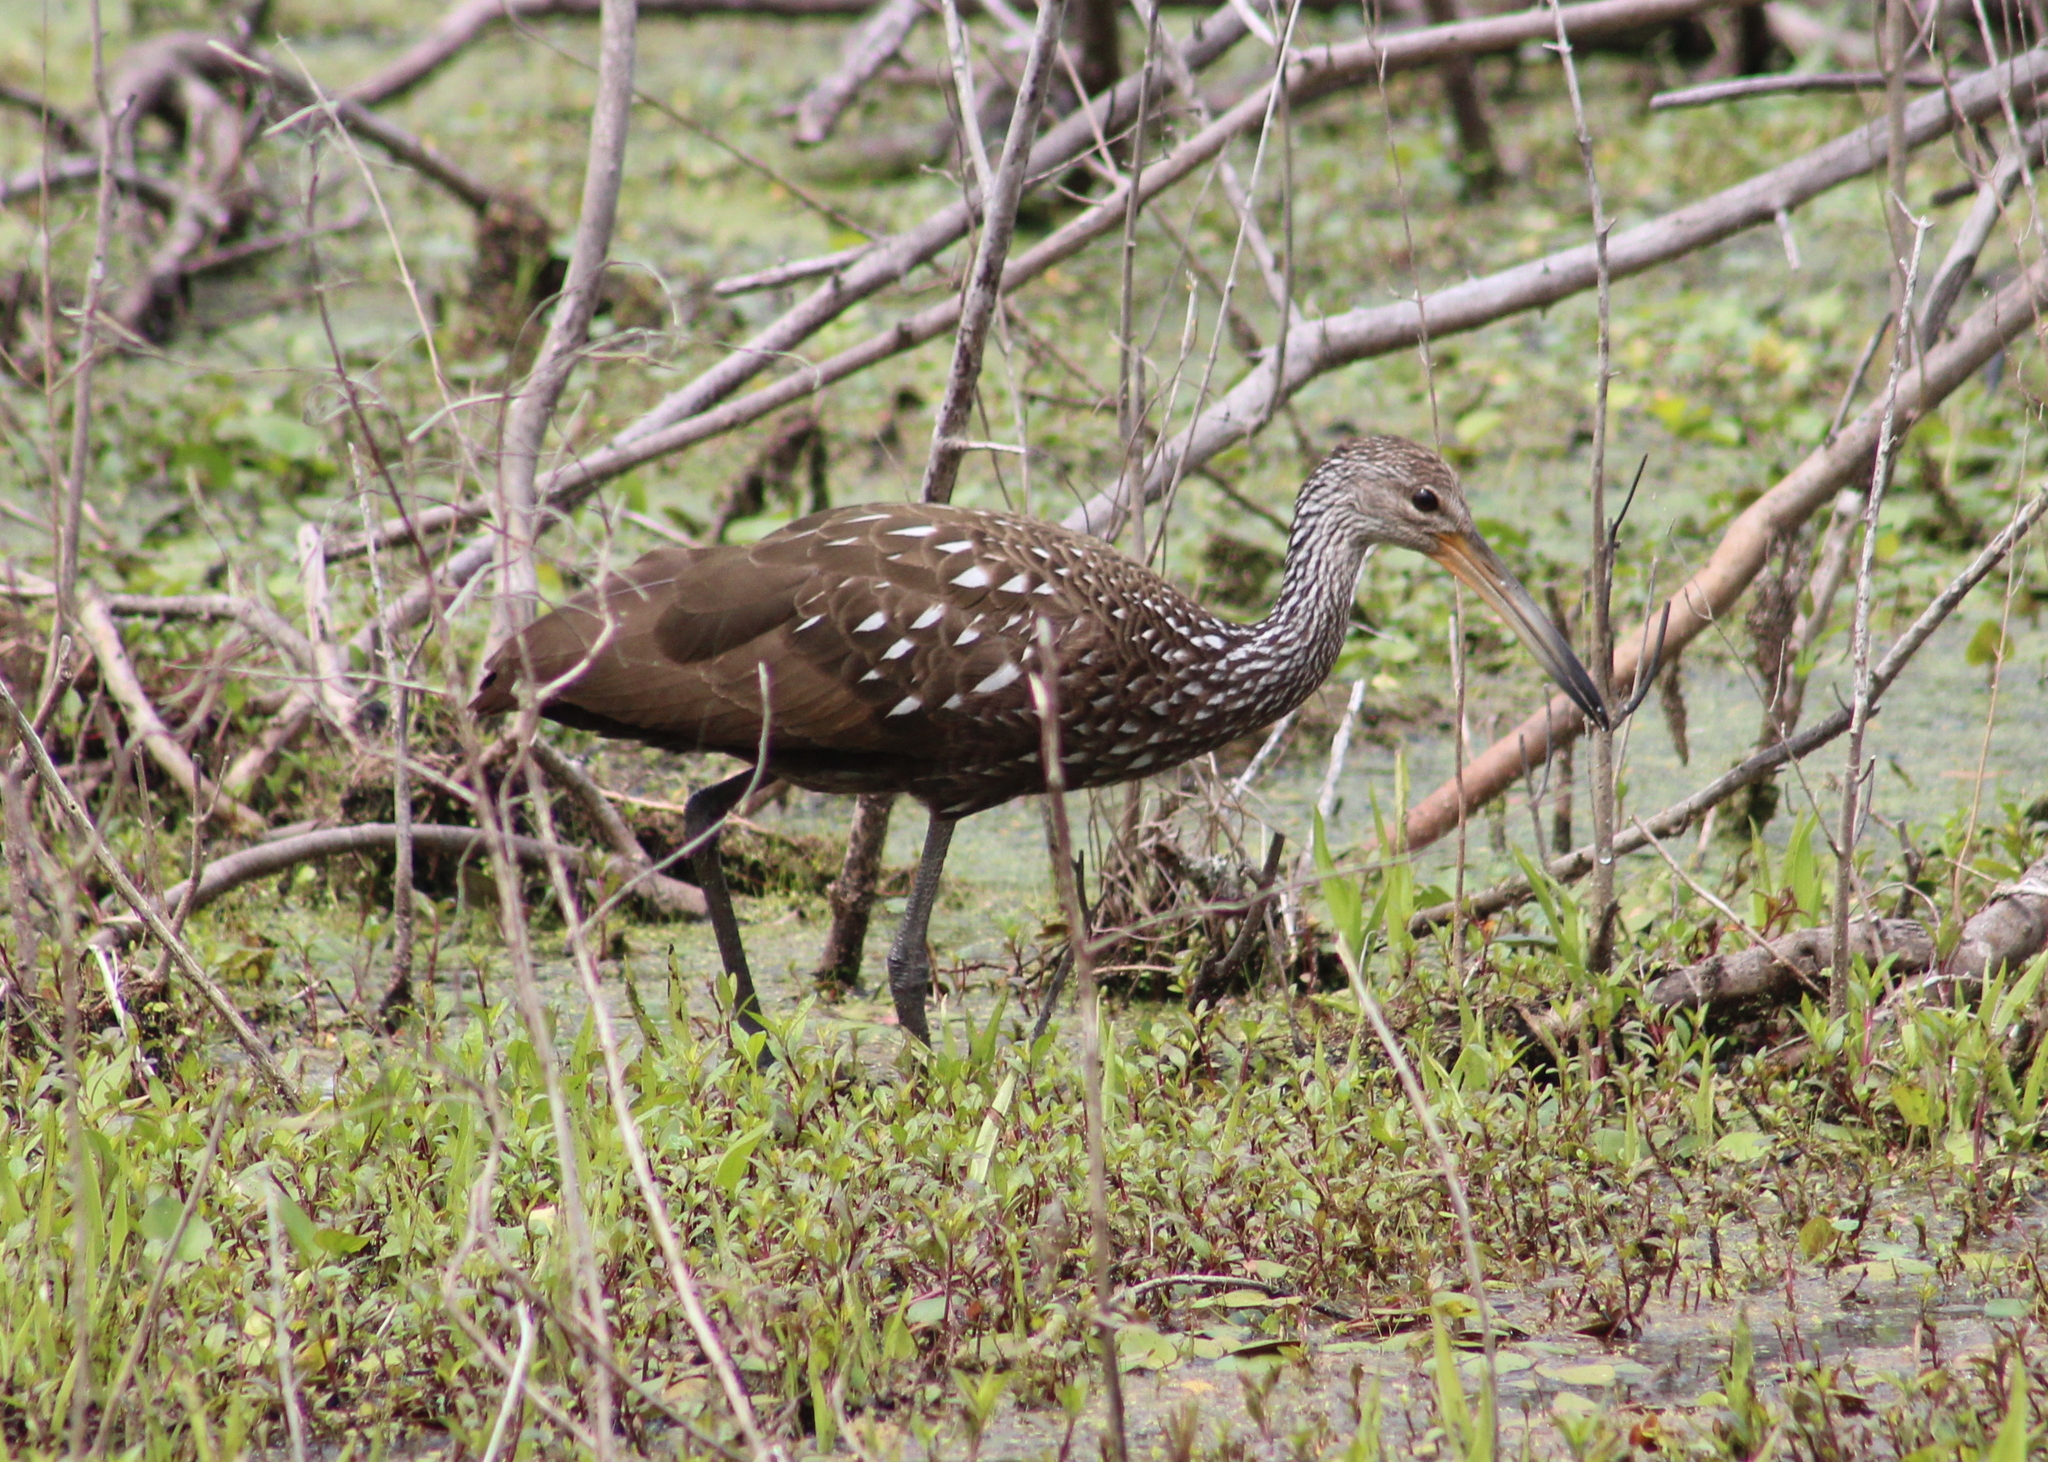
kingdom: Animalia
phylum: Chordata
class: Aves
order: Gruiformes
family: Aramidae
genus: Aramus
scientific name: Aramus guarauna
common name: Limpkin
